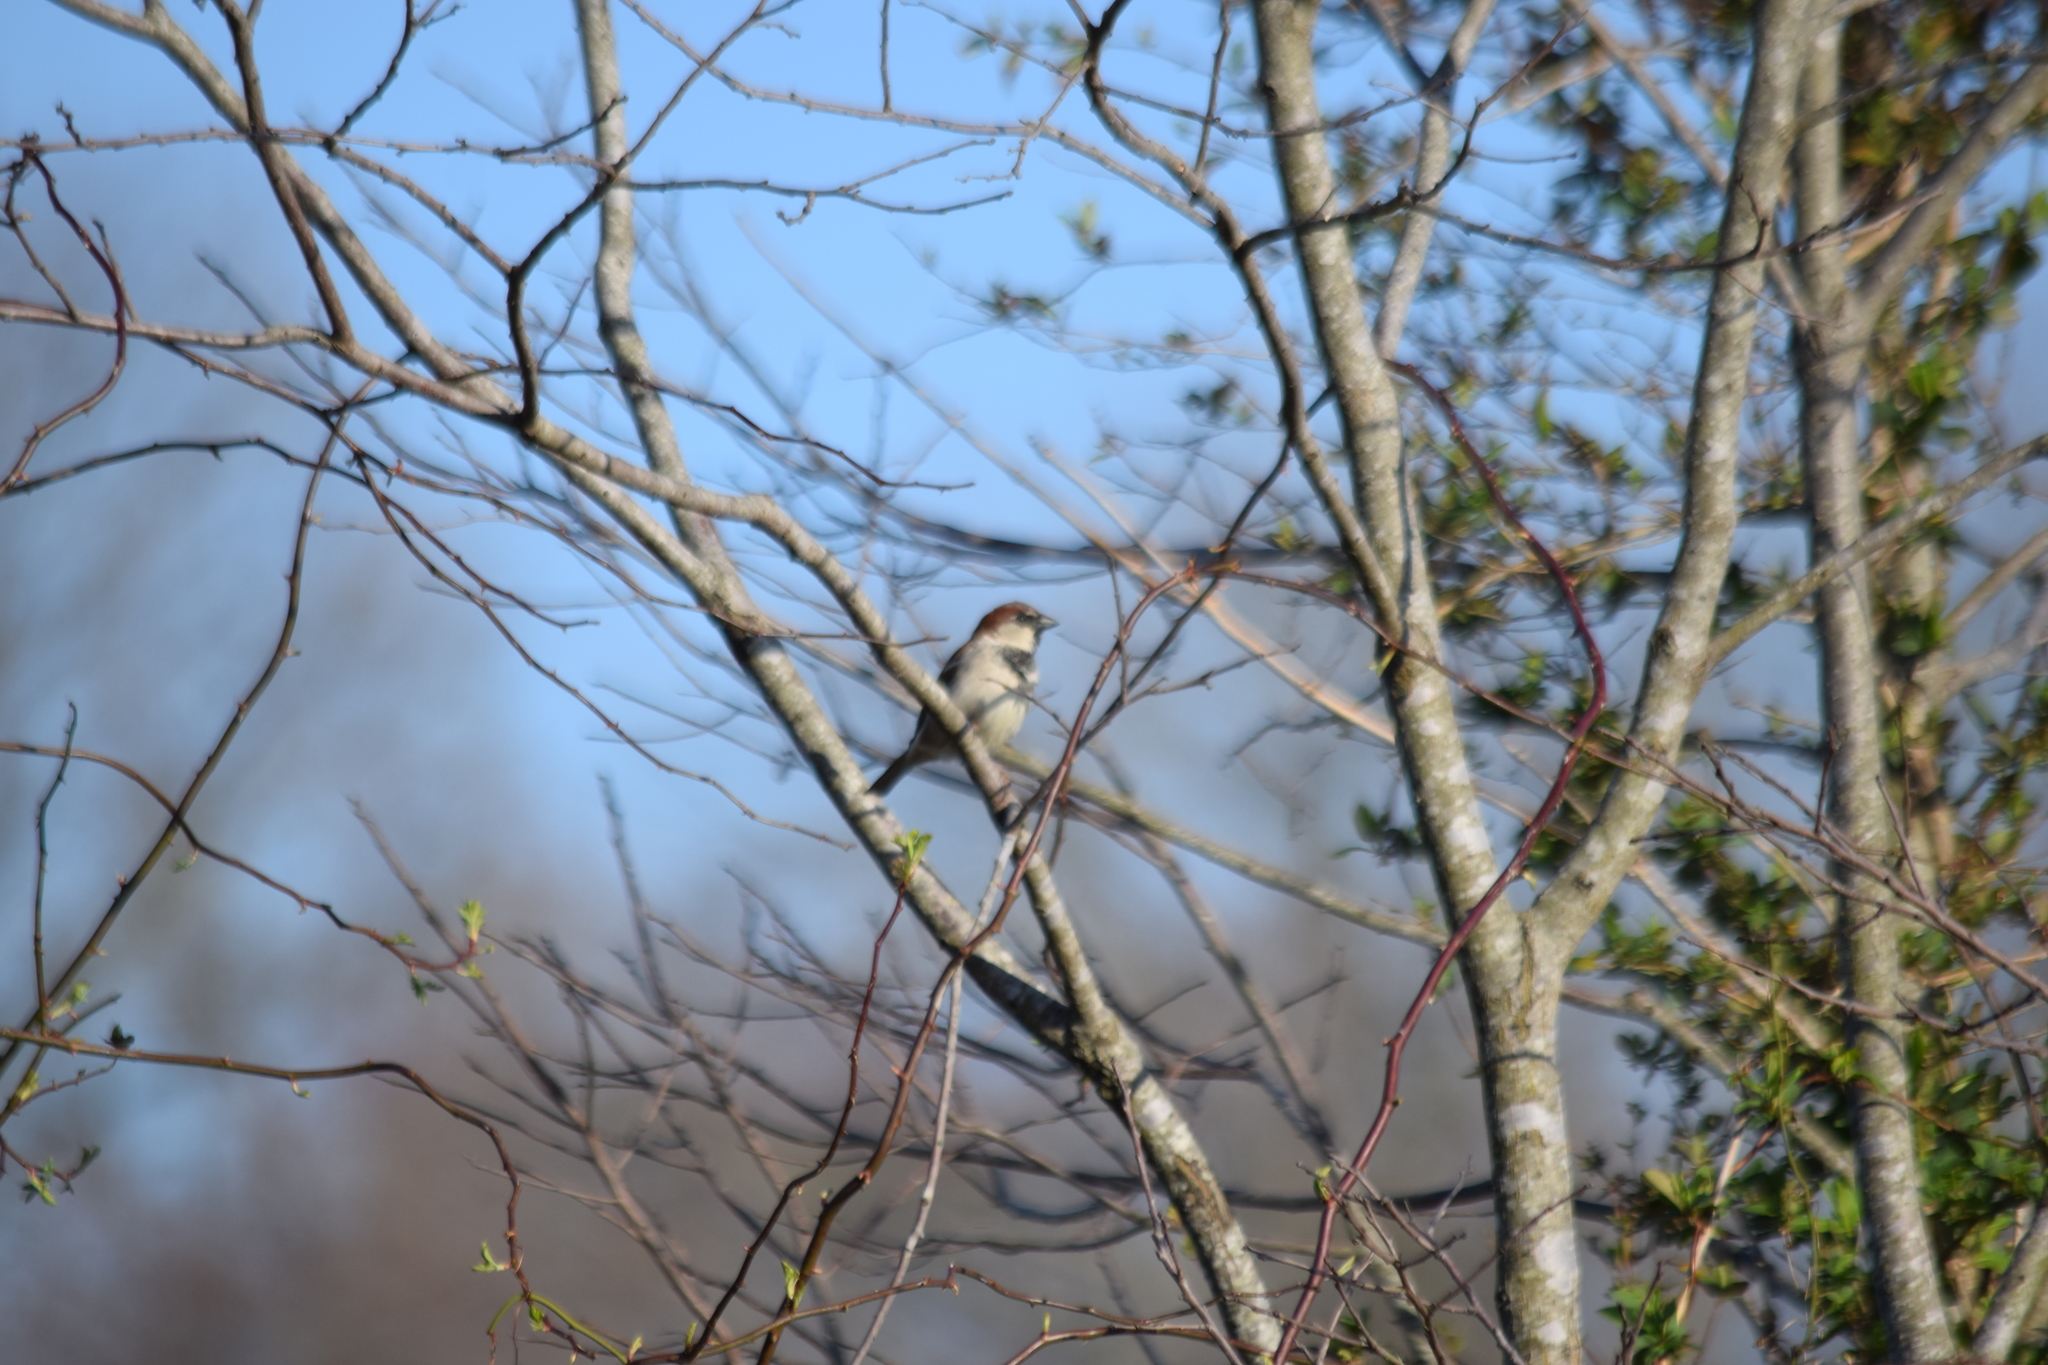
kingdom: Animalia
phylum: Chordata
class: Aves
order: Passeriformes
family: Passeridae
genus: Passer
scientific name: Passer domesticus
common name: House sparrow
